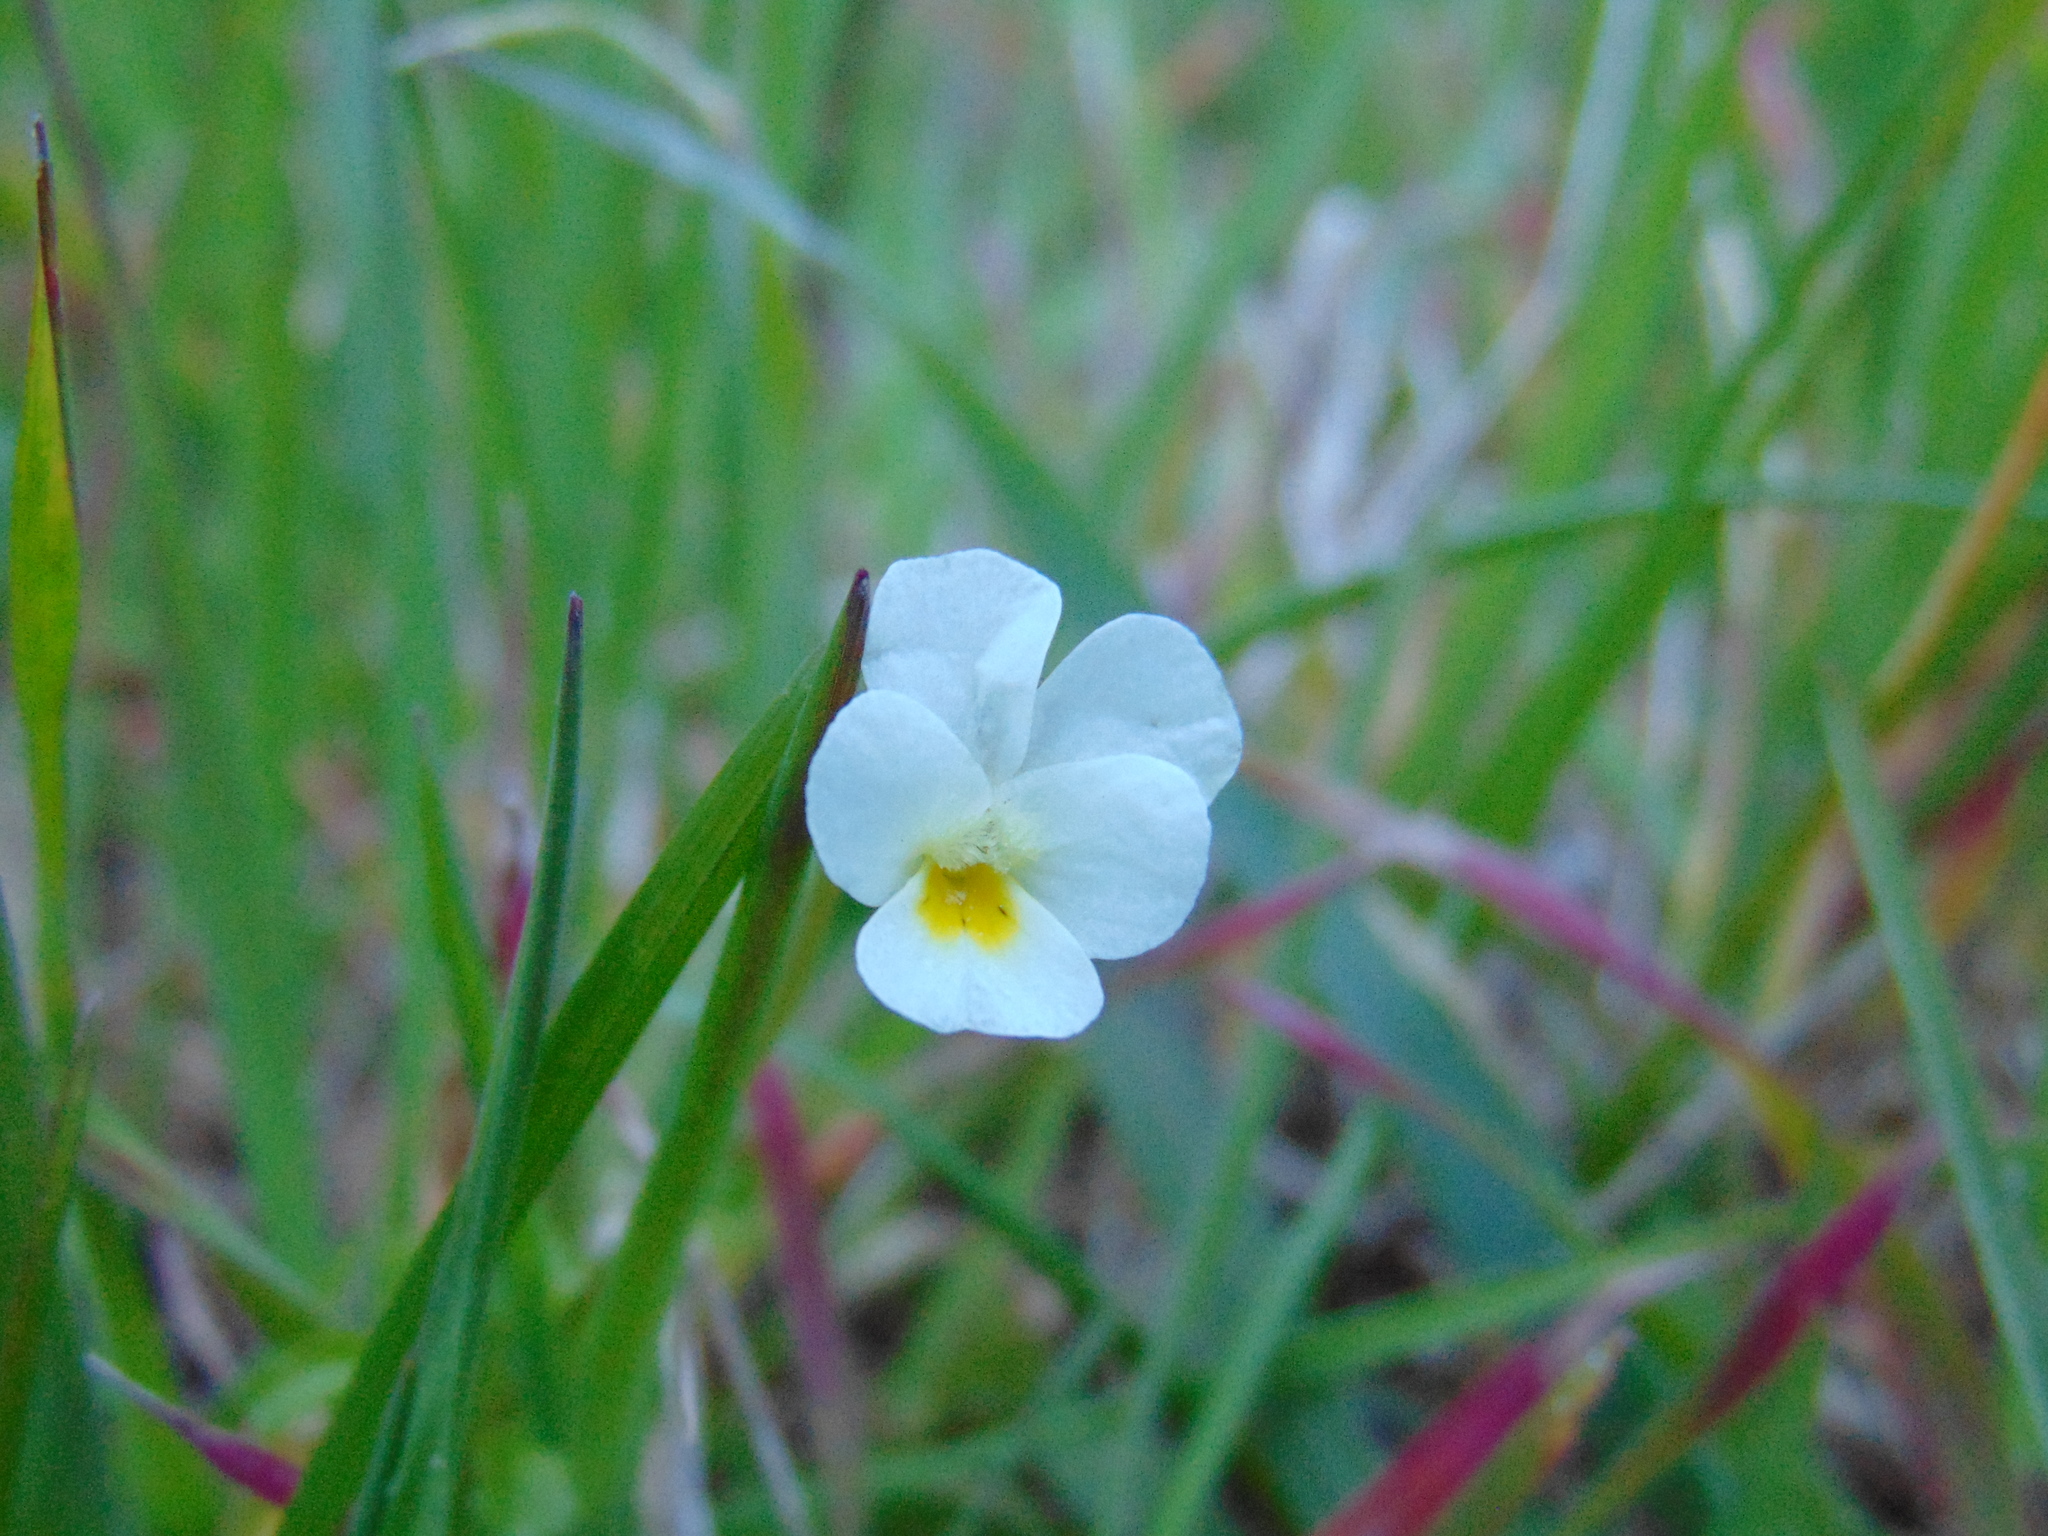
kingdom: Plantae
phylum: Tracheophyta
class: Magnoliopsida
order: Malpighiales
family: Violaceae
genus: Viola
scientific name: Viola arvensis
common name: Field pansy
